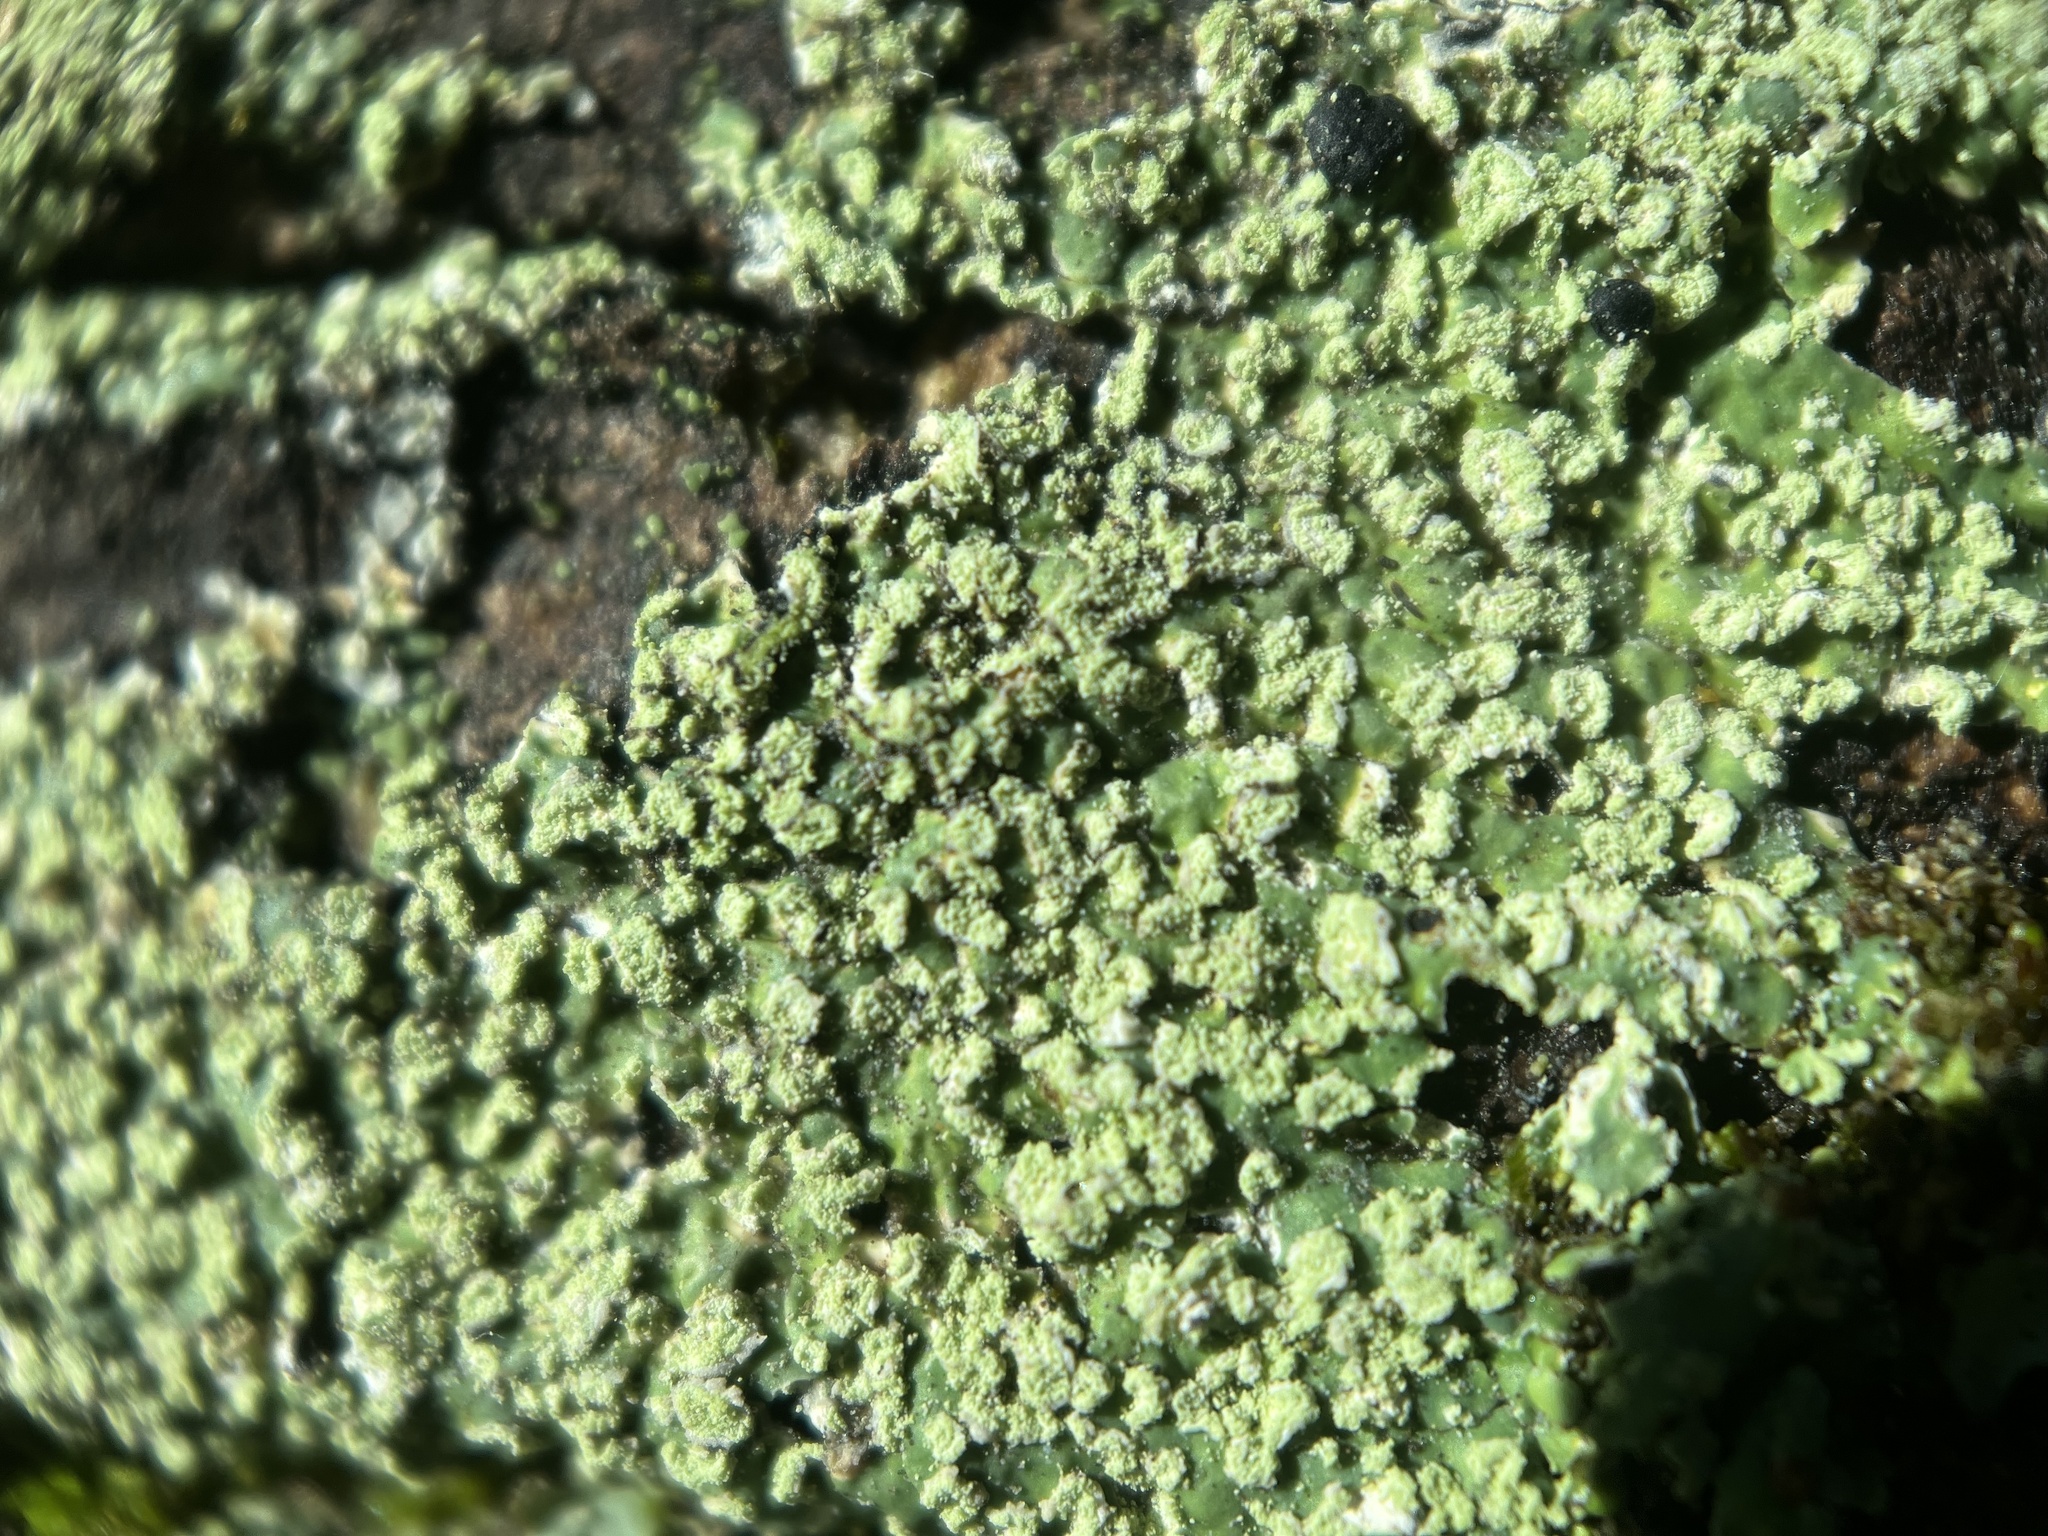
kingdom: Fungi
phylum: Ascomycota
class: Lecanoromycetes
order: Caliciales
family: Caliciaceae
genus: Pyxine
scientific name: Pyxine subcinerea
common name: Mustard lichen
